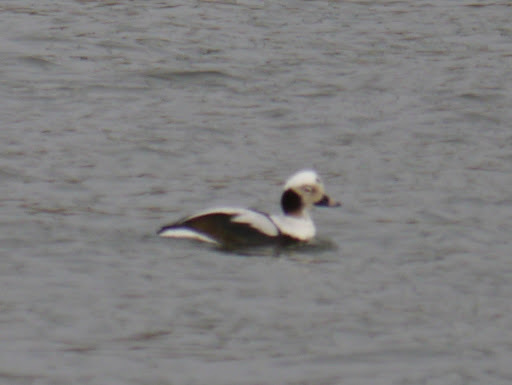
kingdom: Animalia
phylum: Chordata
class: Aves
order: Anseriformes
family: Anatidae
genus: Clangula
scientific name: Clangula hyemalis
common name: Long-tailed duck
